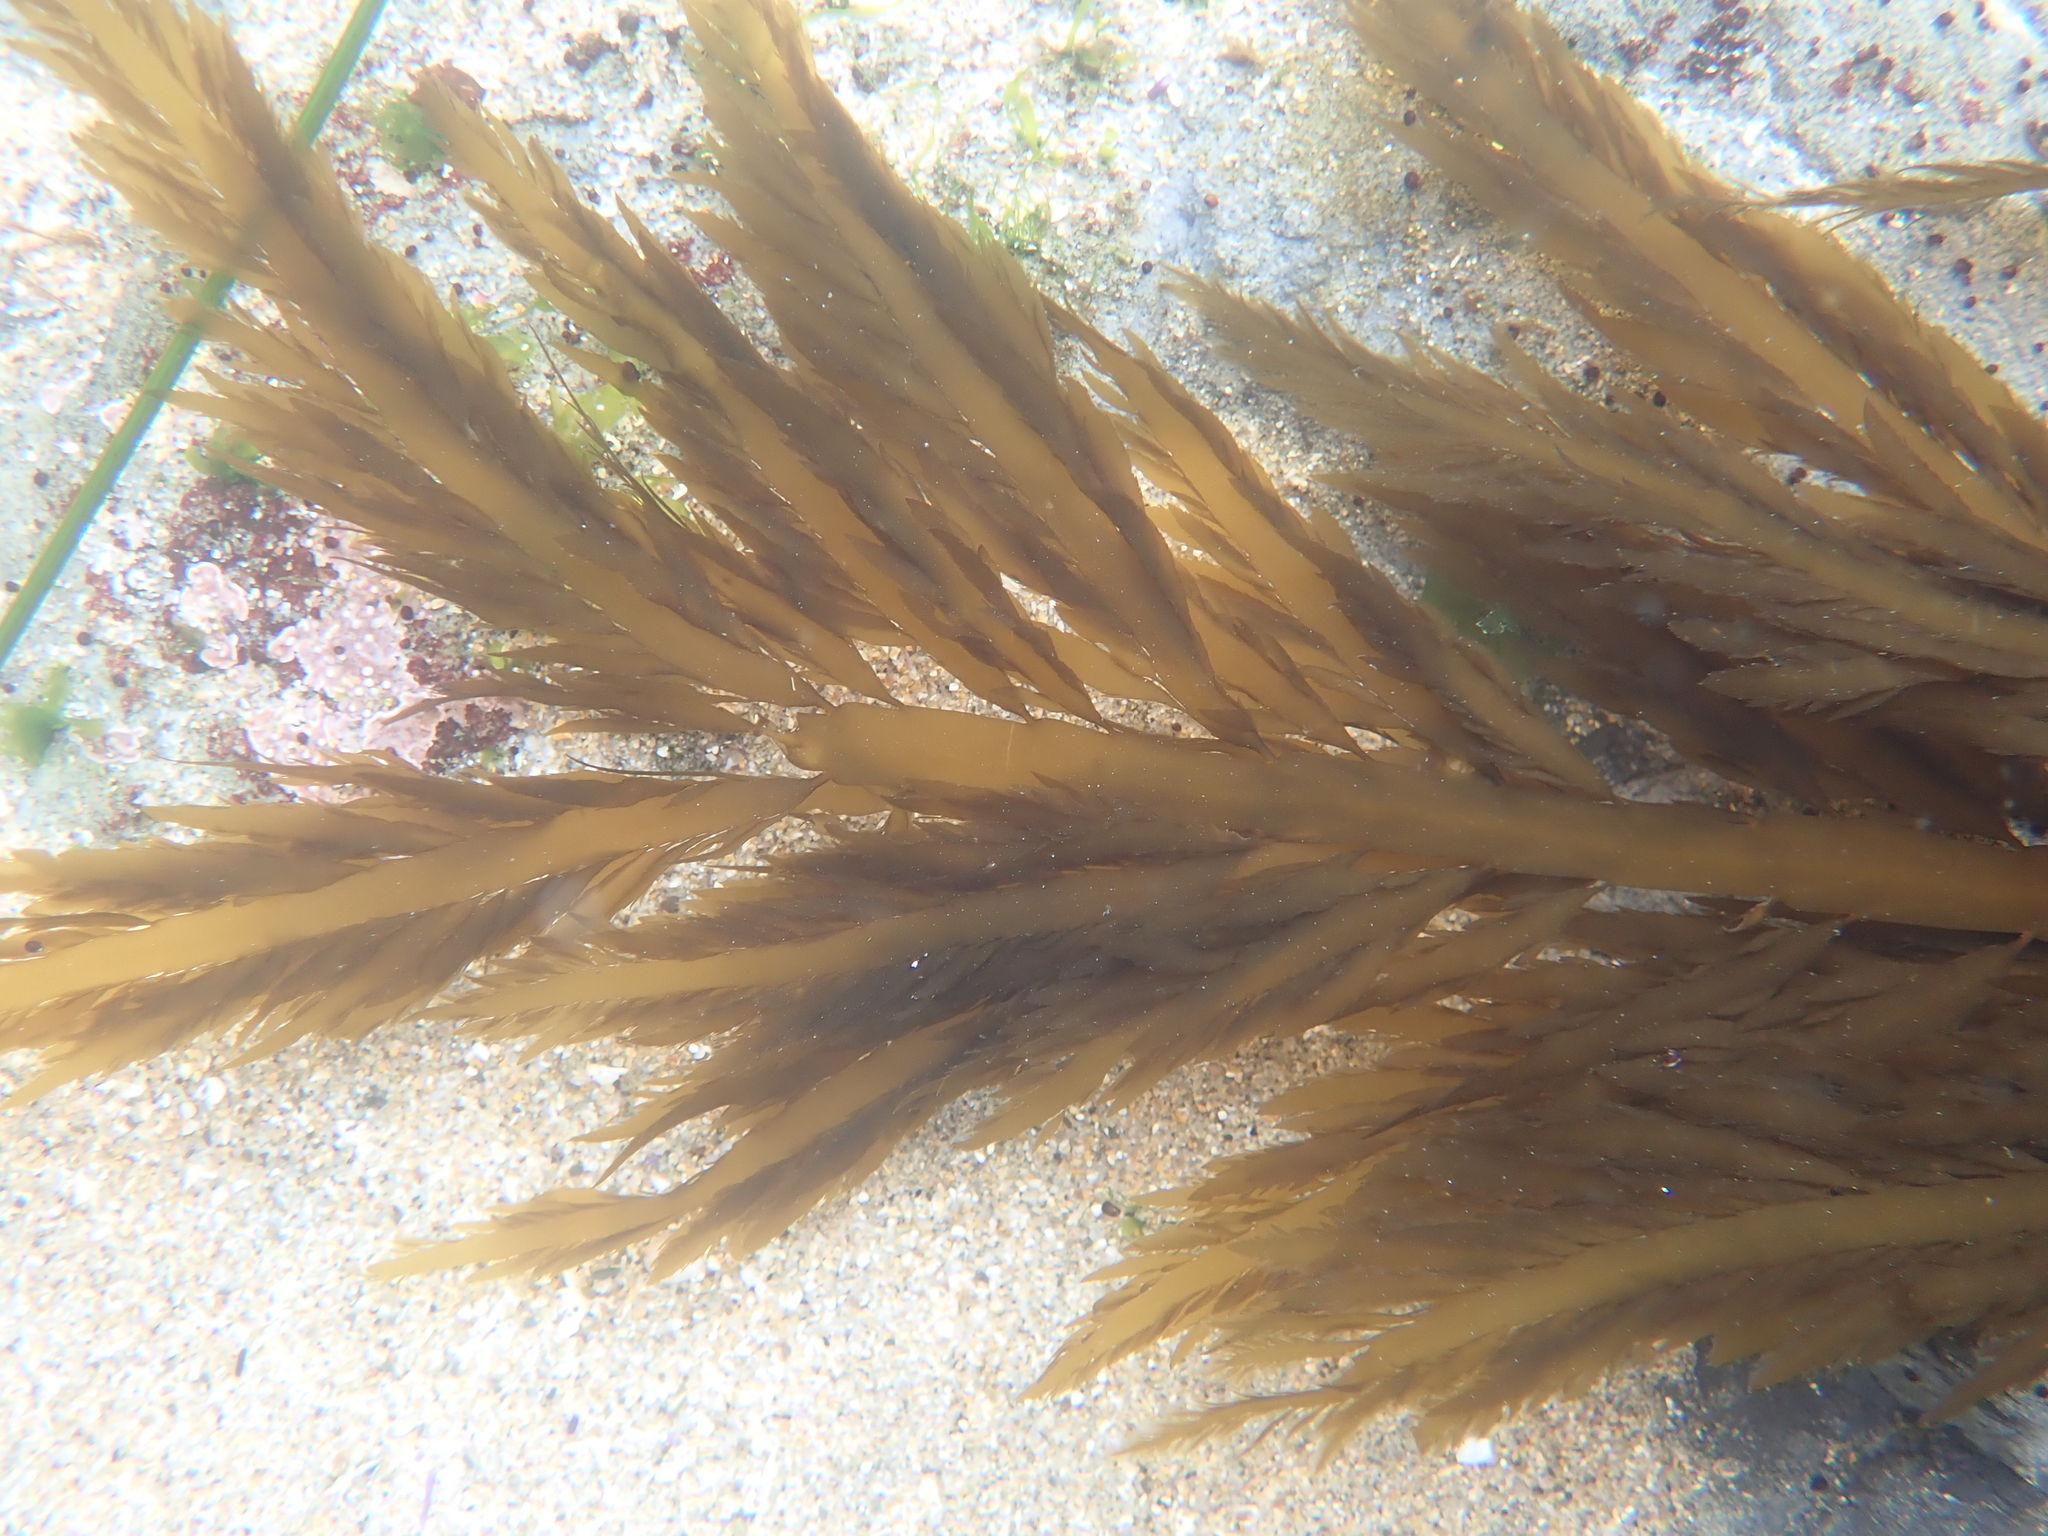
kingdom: Chromista
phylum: Ochrophyta
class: Phaeophyceae
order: Desmarestiales
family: Desmarestiaceae
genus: Desmarestia
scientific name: Desmarestia ligulata
